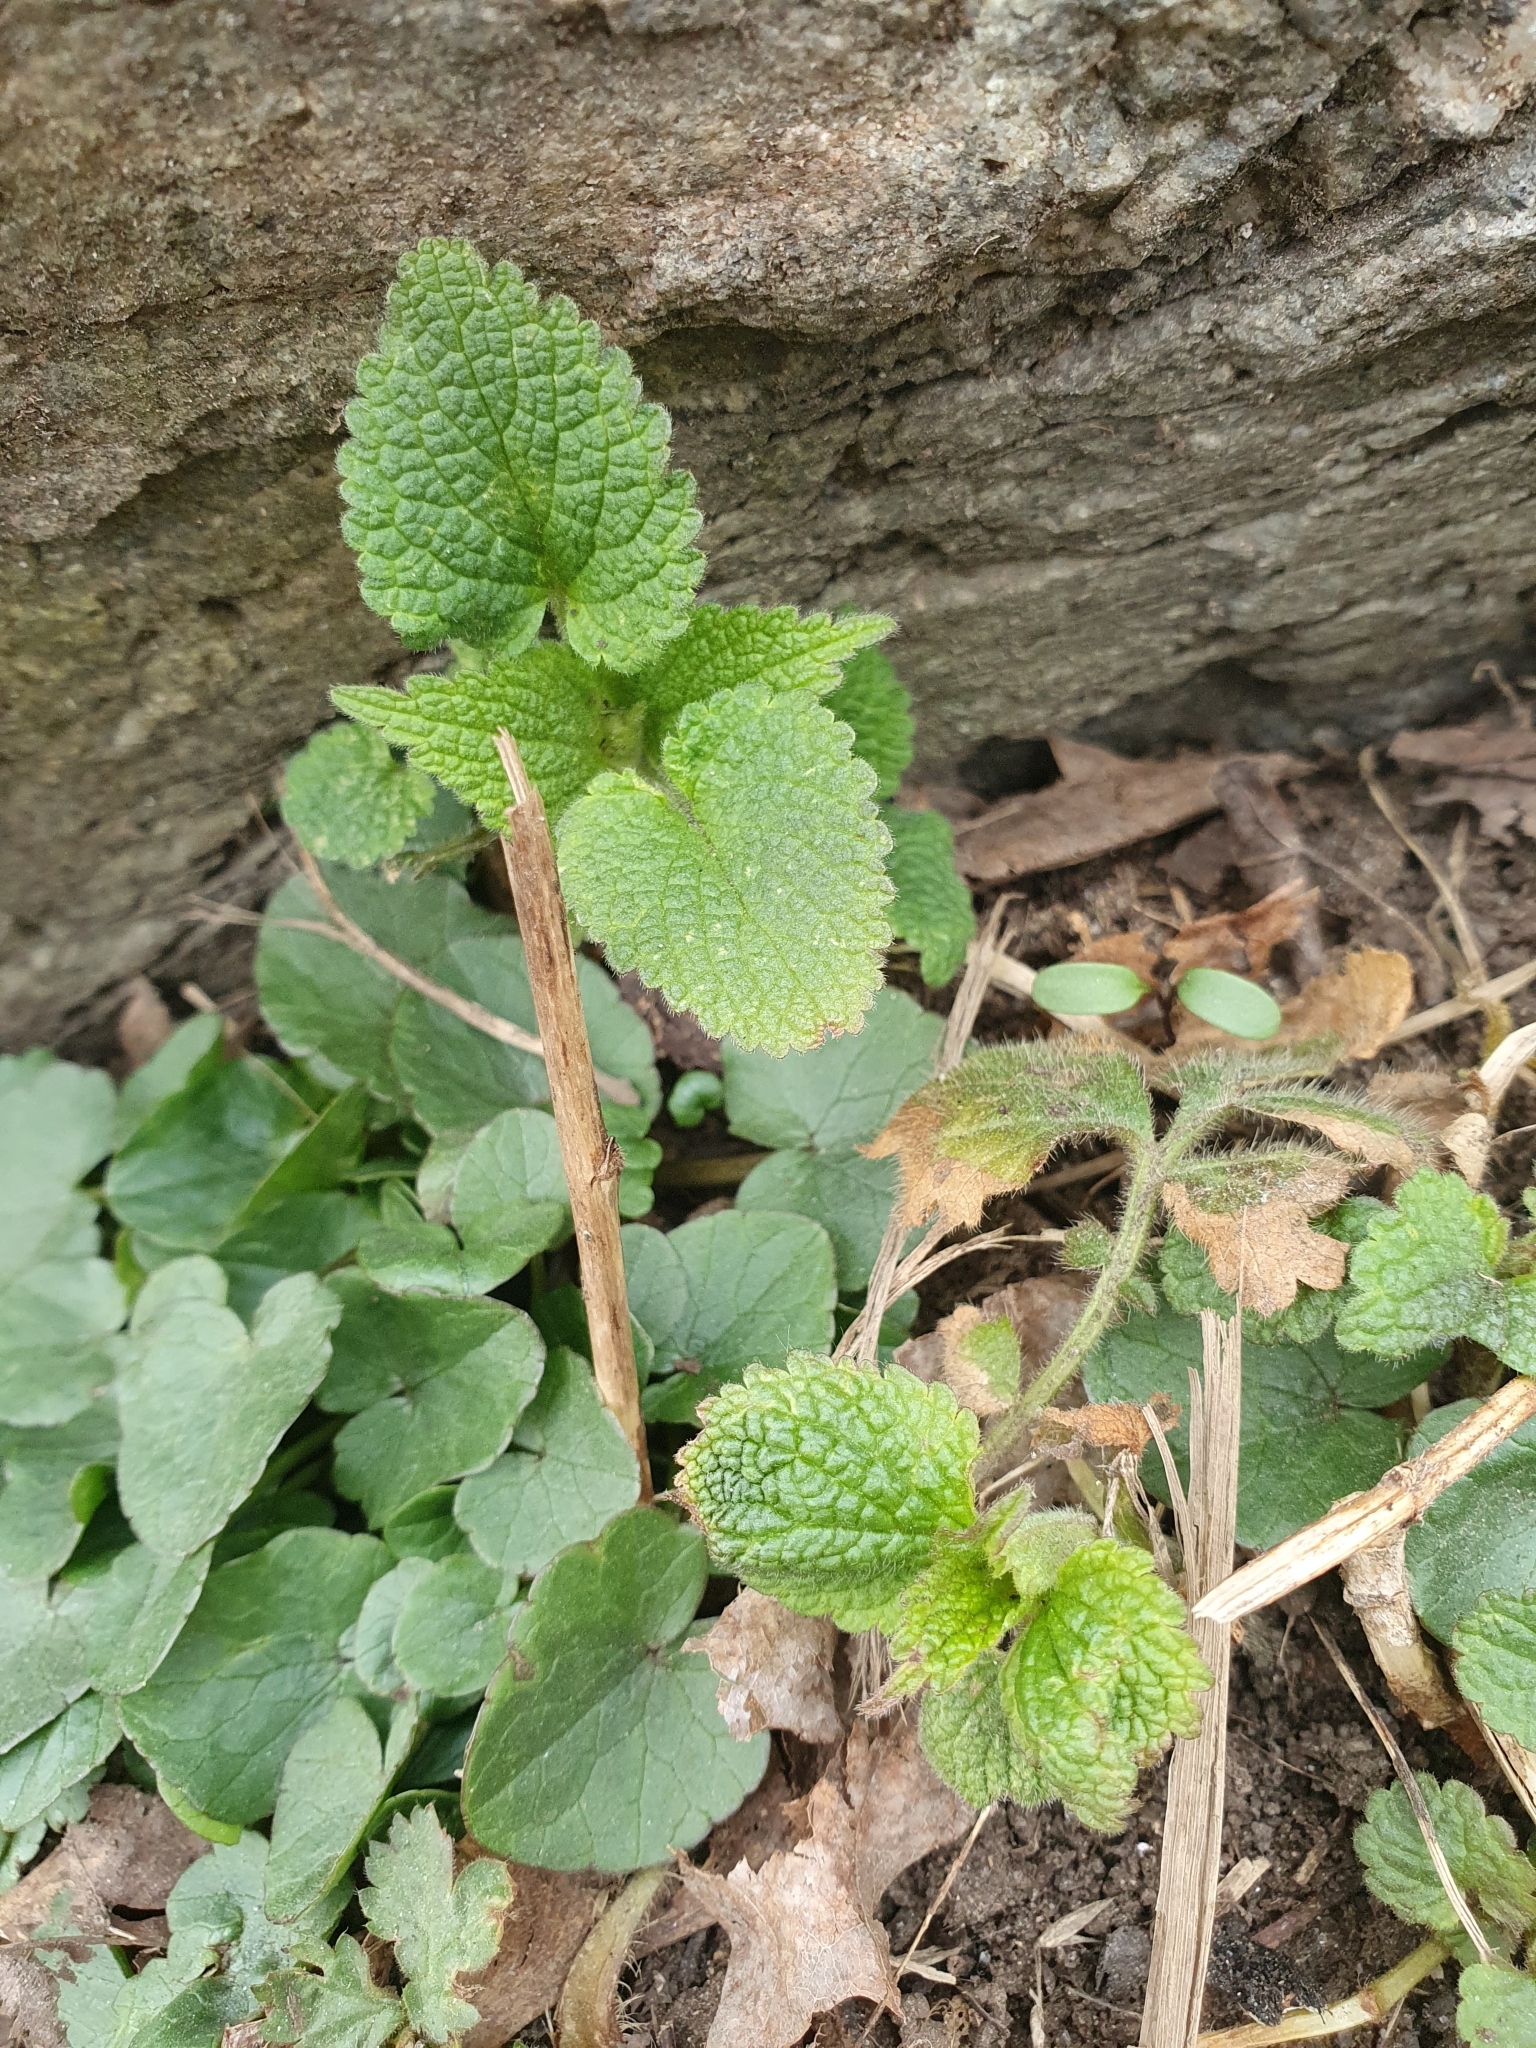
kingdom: Plantae
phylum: Tracheophyta
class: Magnoliopsida
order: Lamiales
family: Lamiaceae
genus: Lamium
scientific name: Lamium album
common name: White dead-nettle
